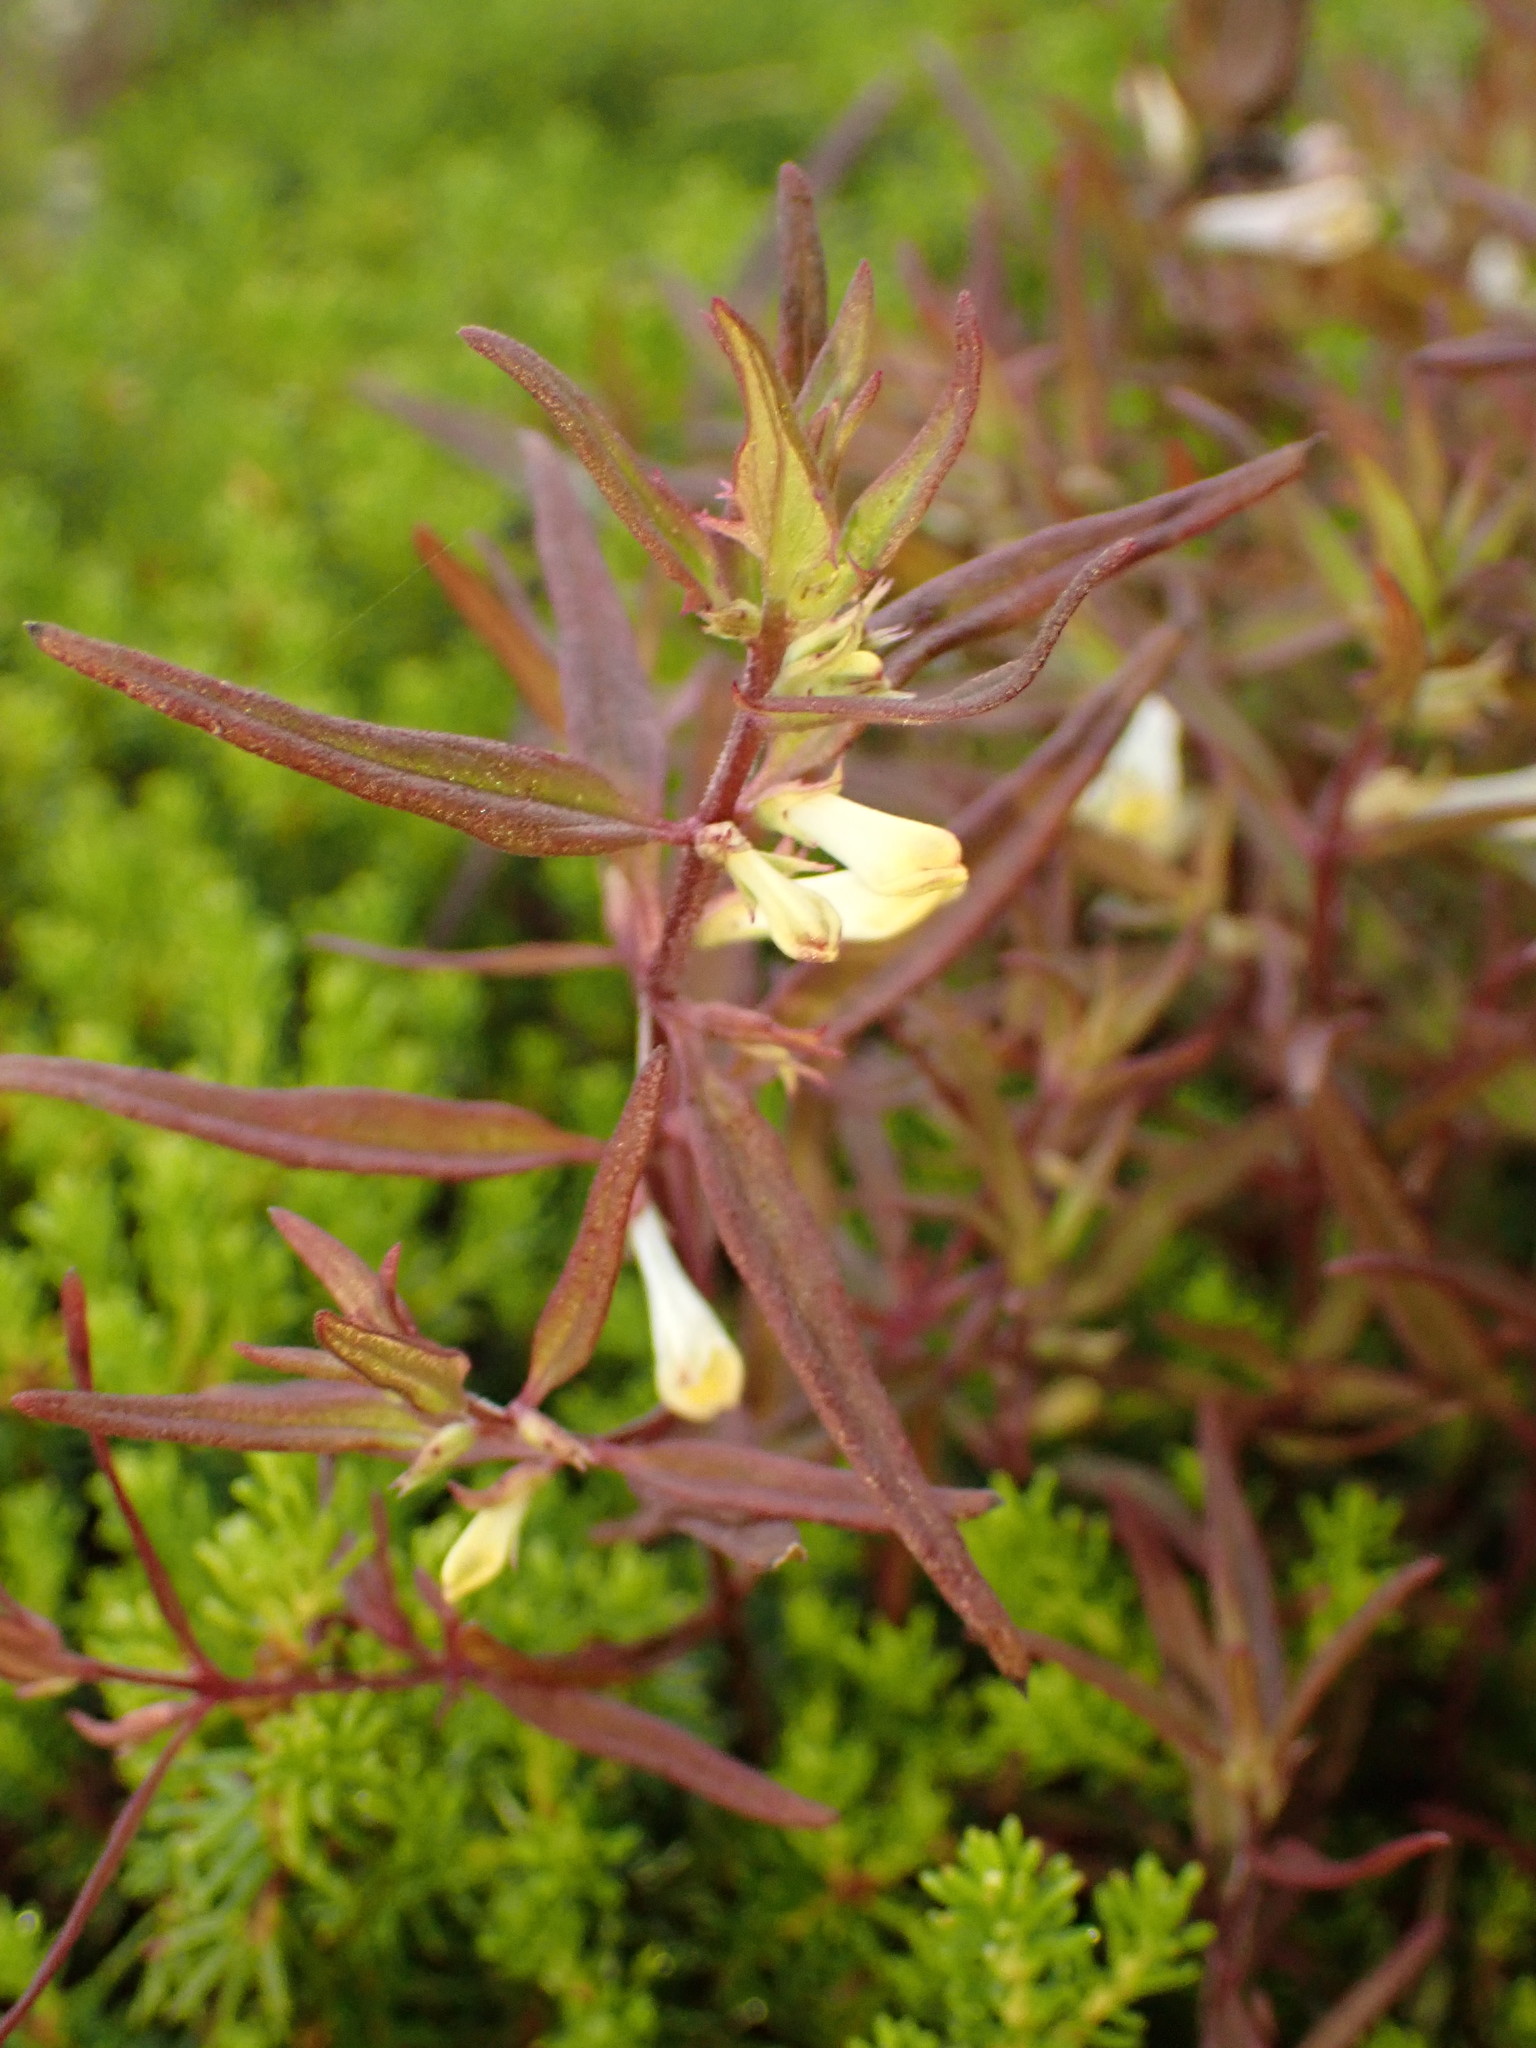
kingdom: Plantae
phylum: Tracheophyta
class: Magnoliopsida
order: Lamiales
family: Orobanchaceae
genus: Melampyrum
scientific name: Melampyrum lineare
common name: American cow-wheat
